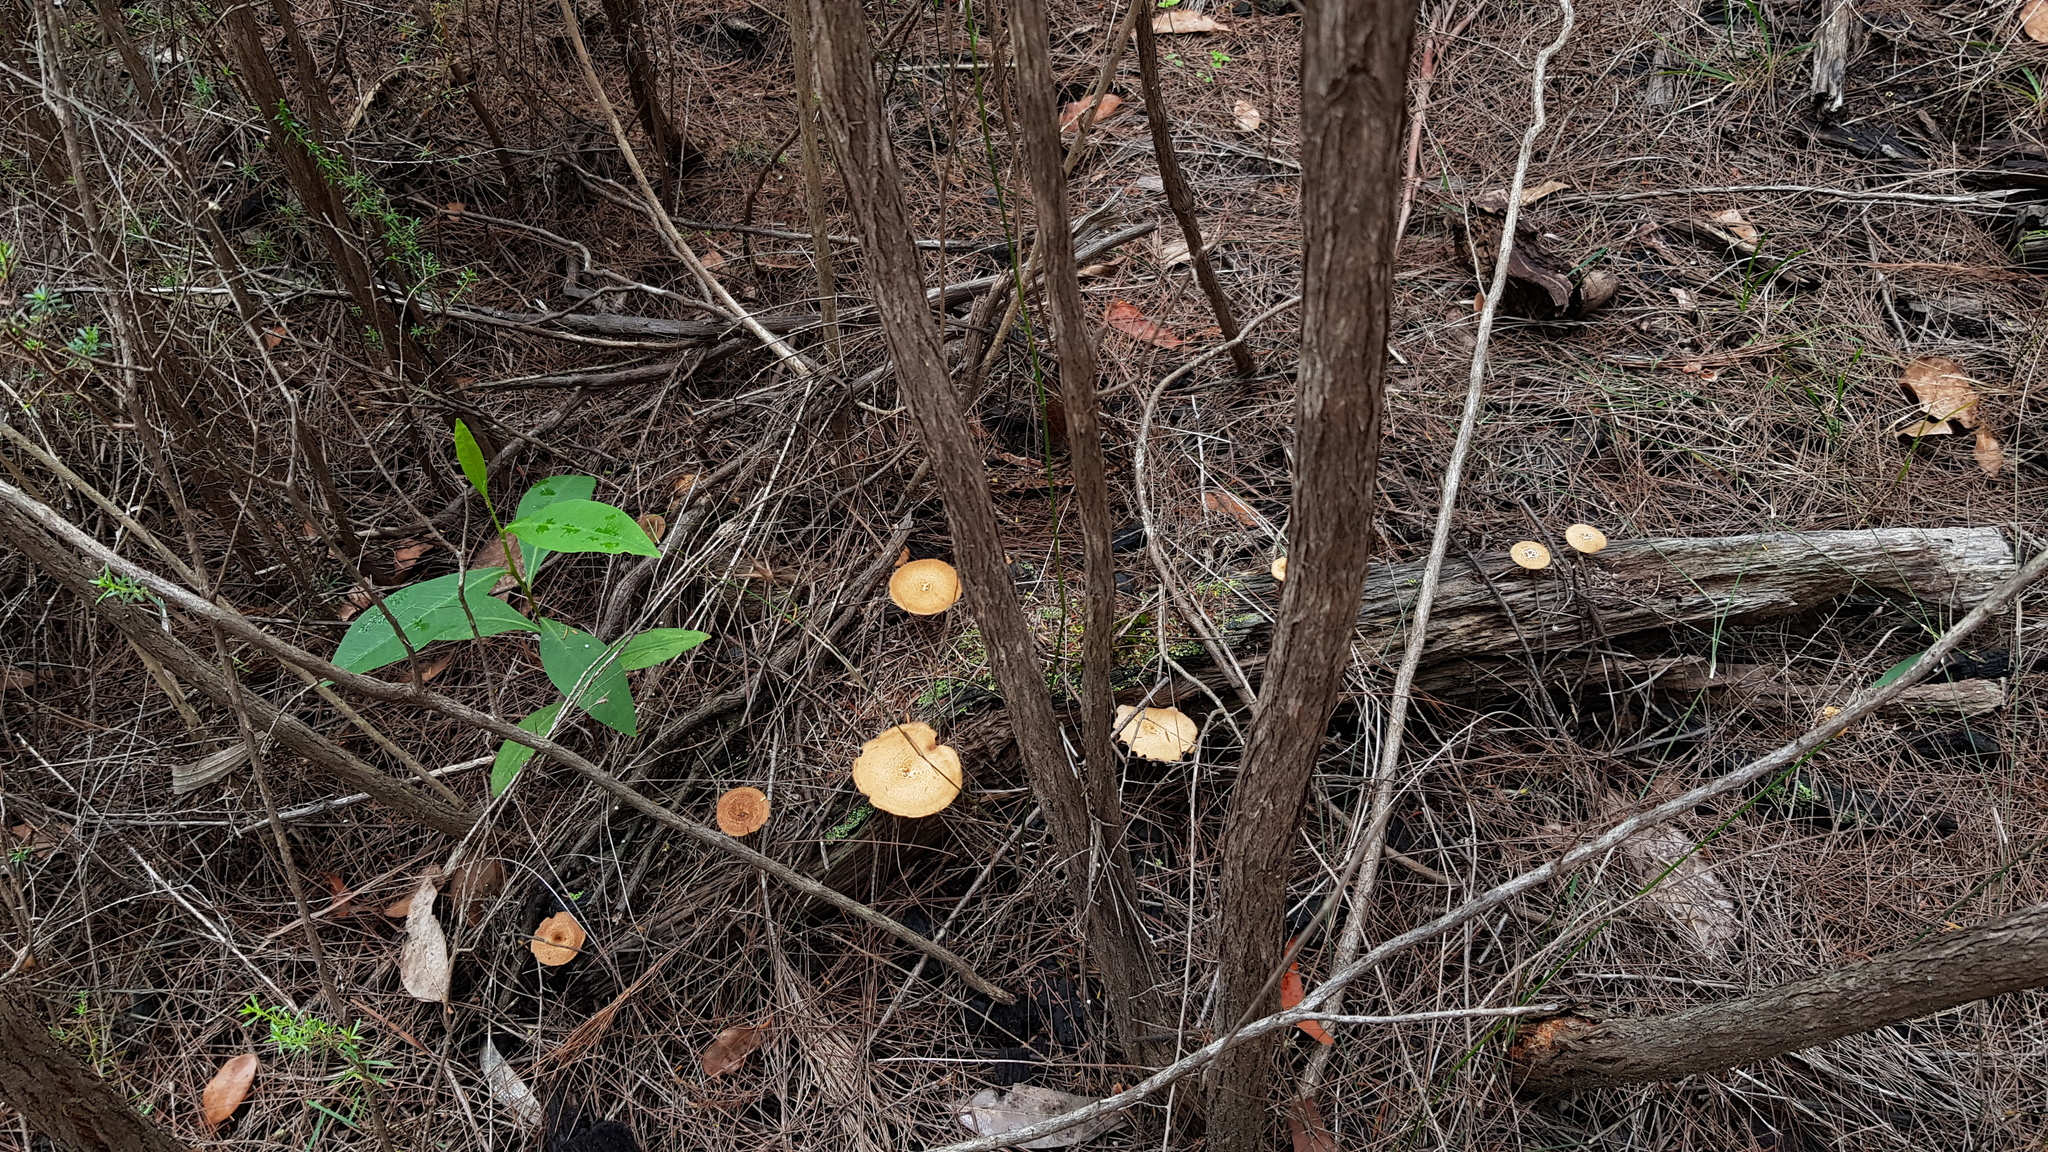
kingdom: Fungi
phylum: Basidiomycota
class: Agaricomycetes
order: Polyporales
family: Polyporaceae
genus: Lentinus
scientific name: Lentinus arcularius
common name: Spring polypore
